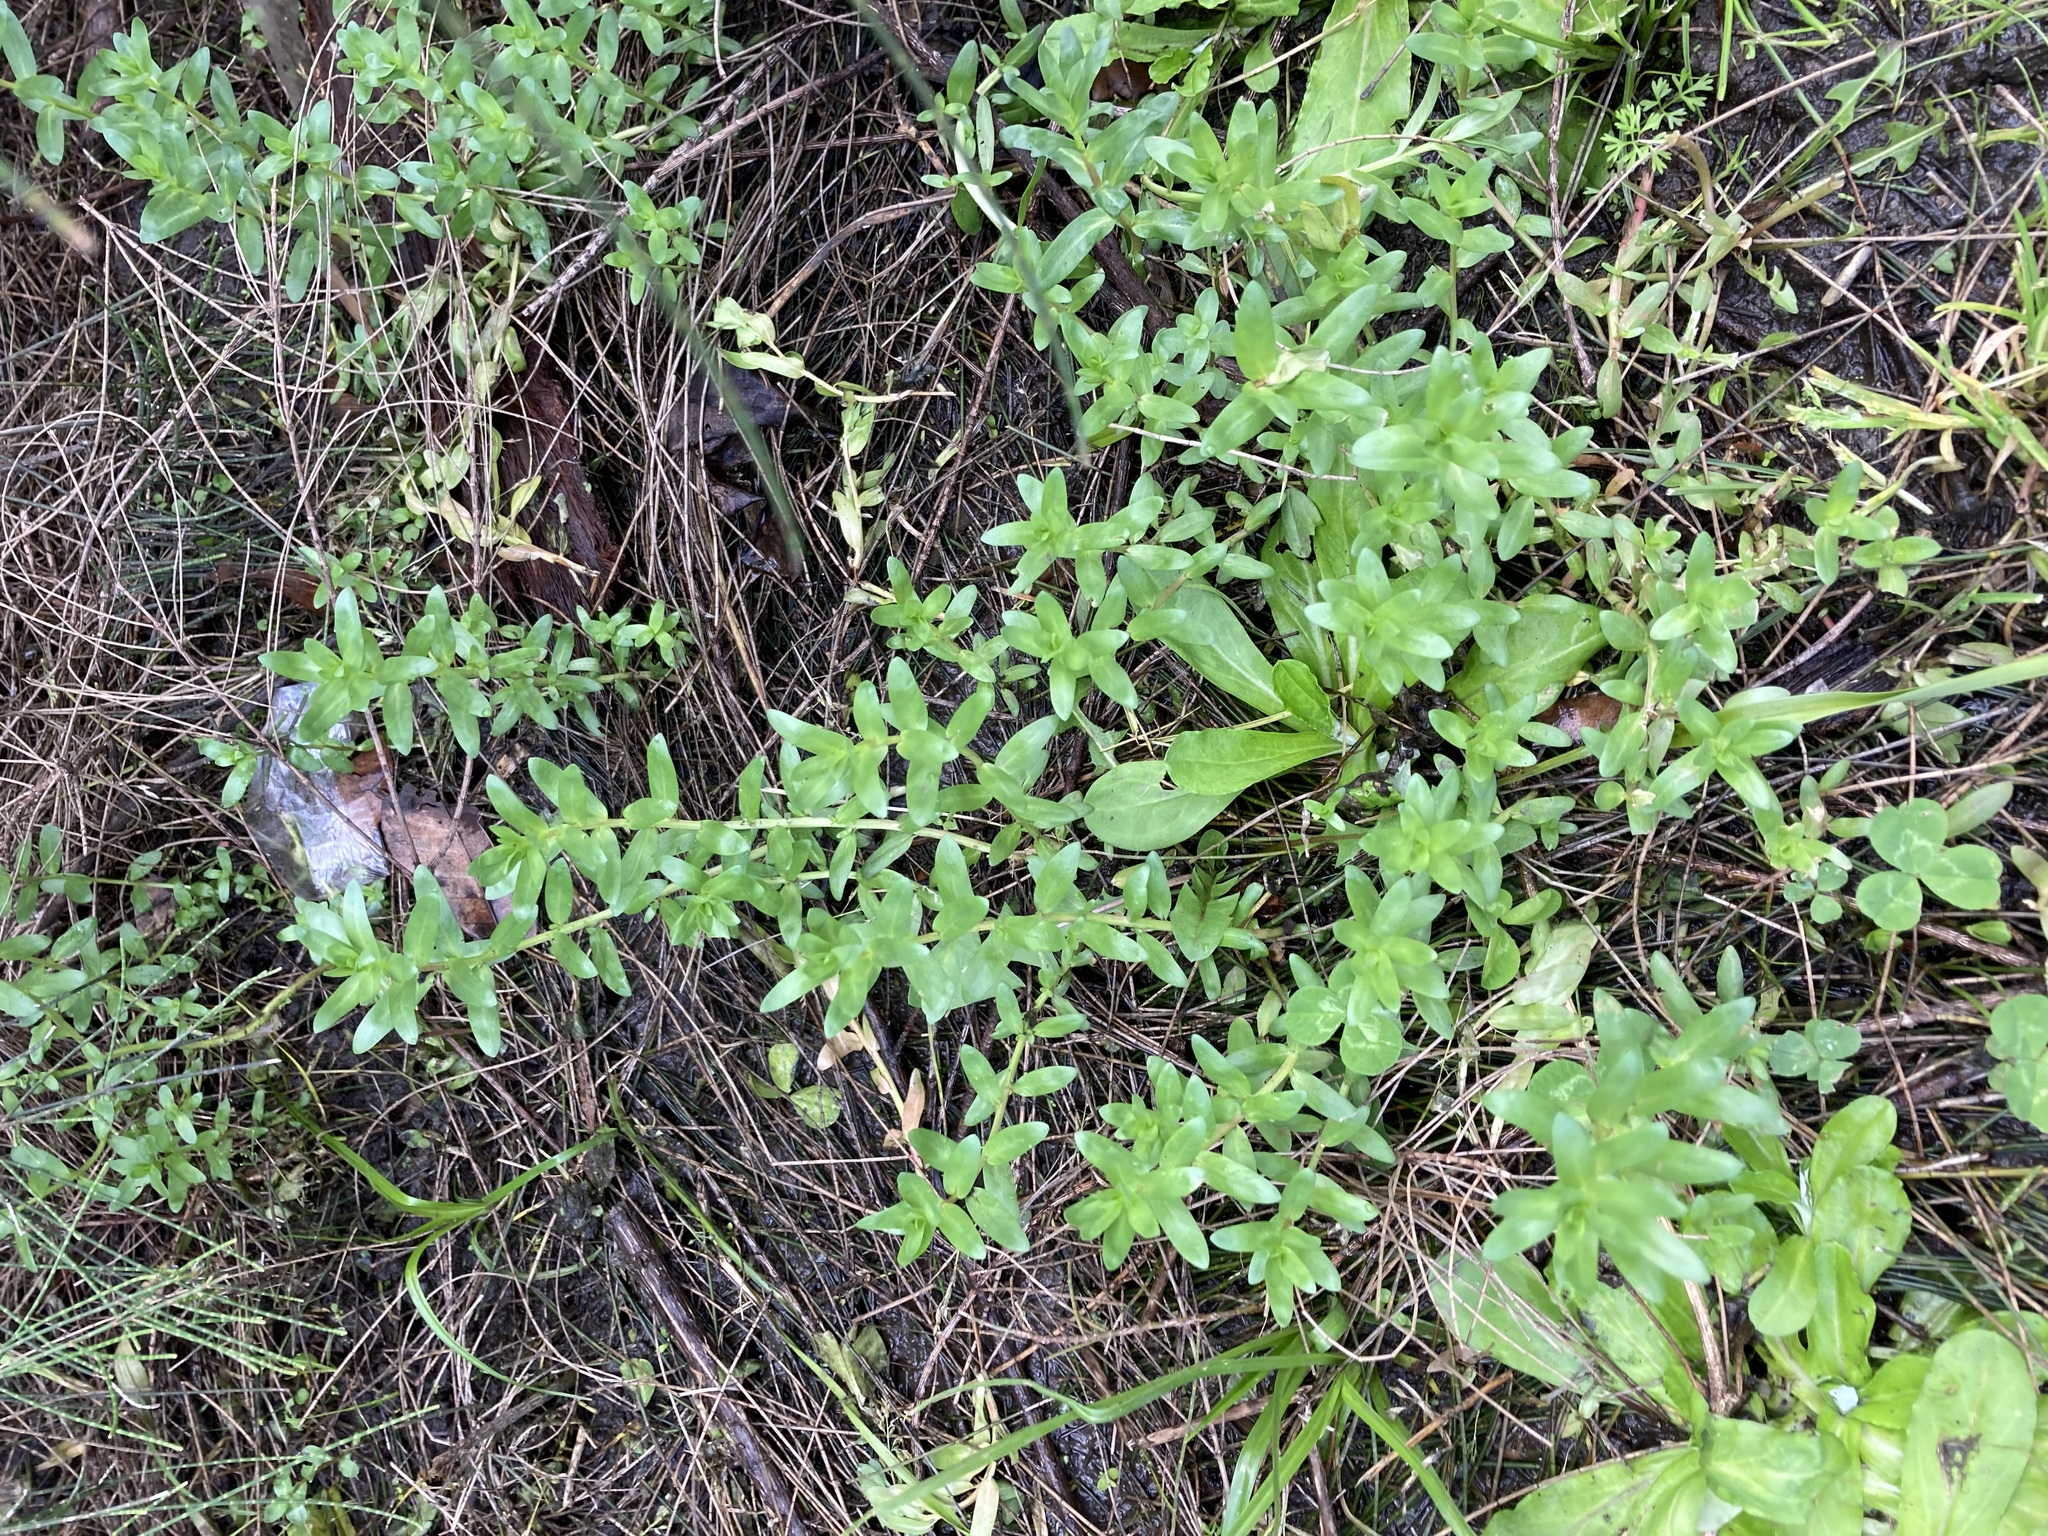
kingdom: Plantae
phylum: Tracheophyta
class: Magnoliopsida
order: Myrtales
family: Lythraceae
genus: Lythrum
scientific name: Lythrum hyssopifolia
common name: Grass-poly
